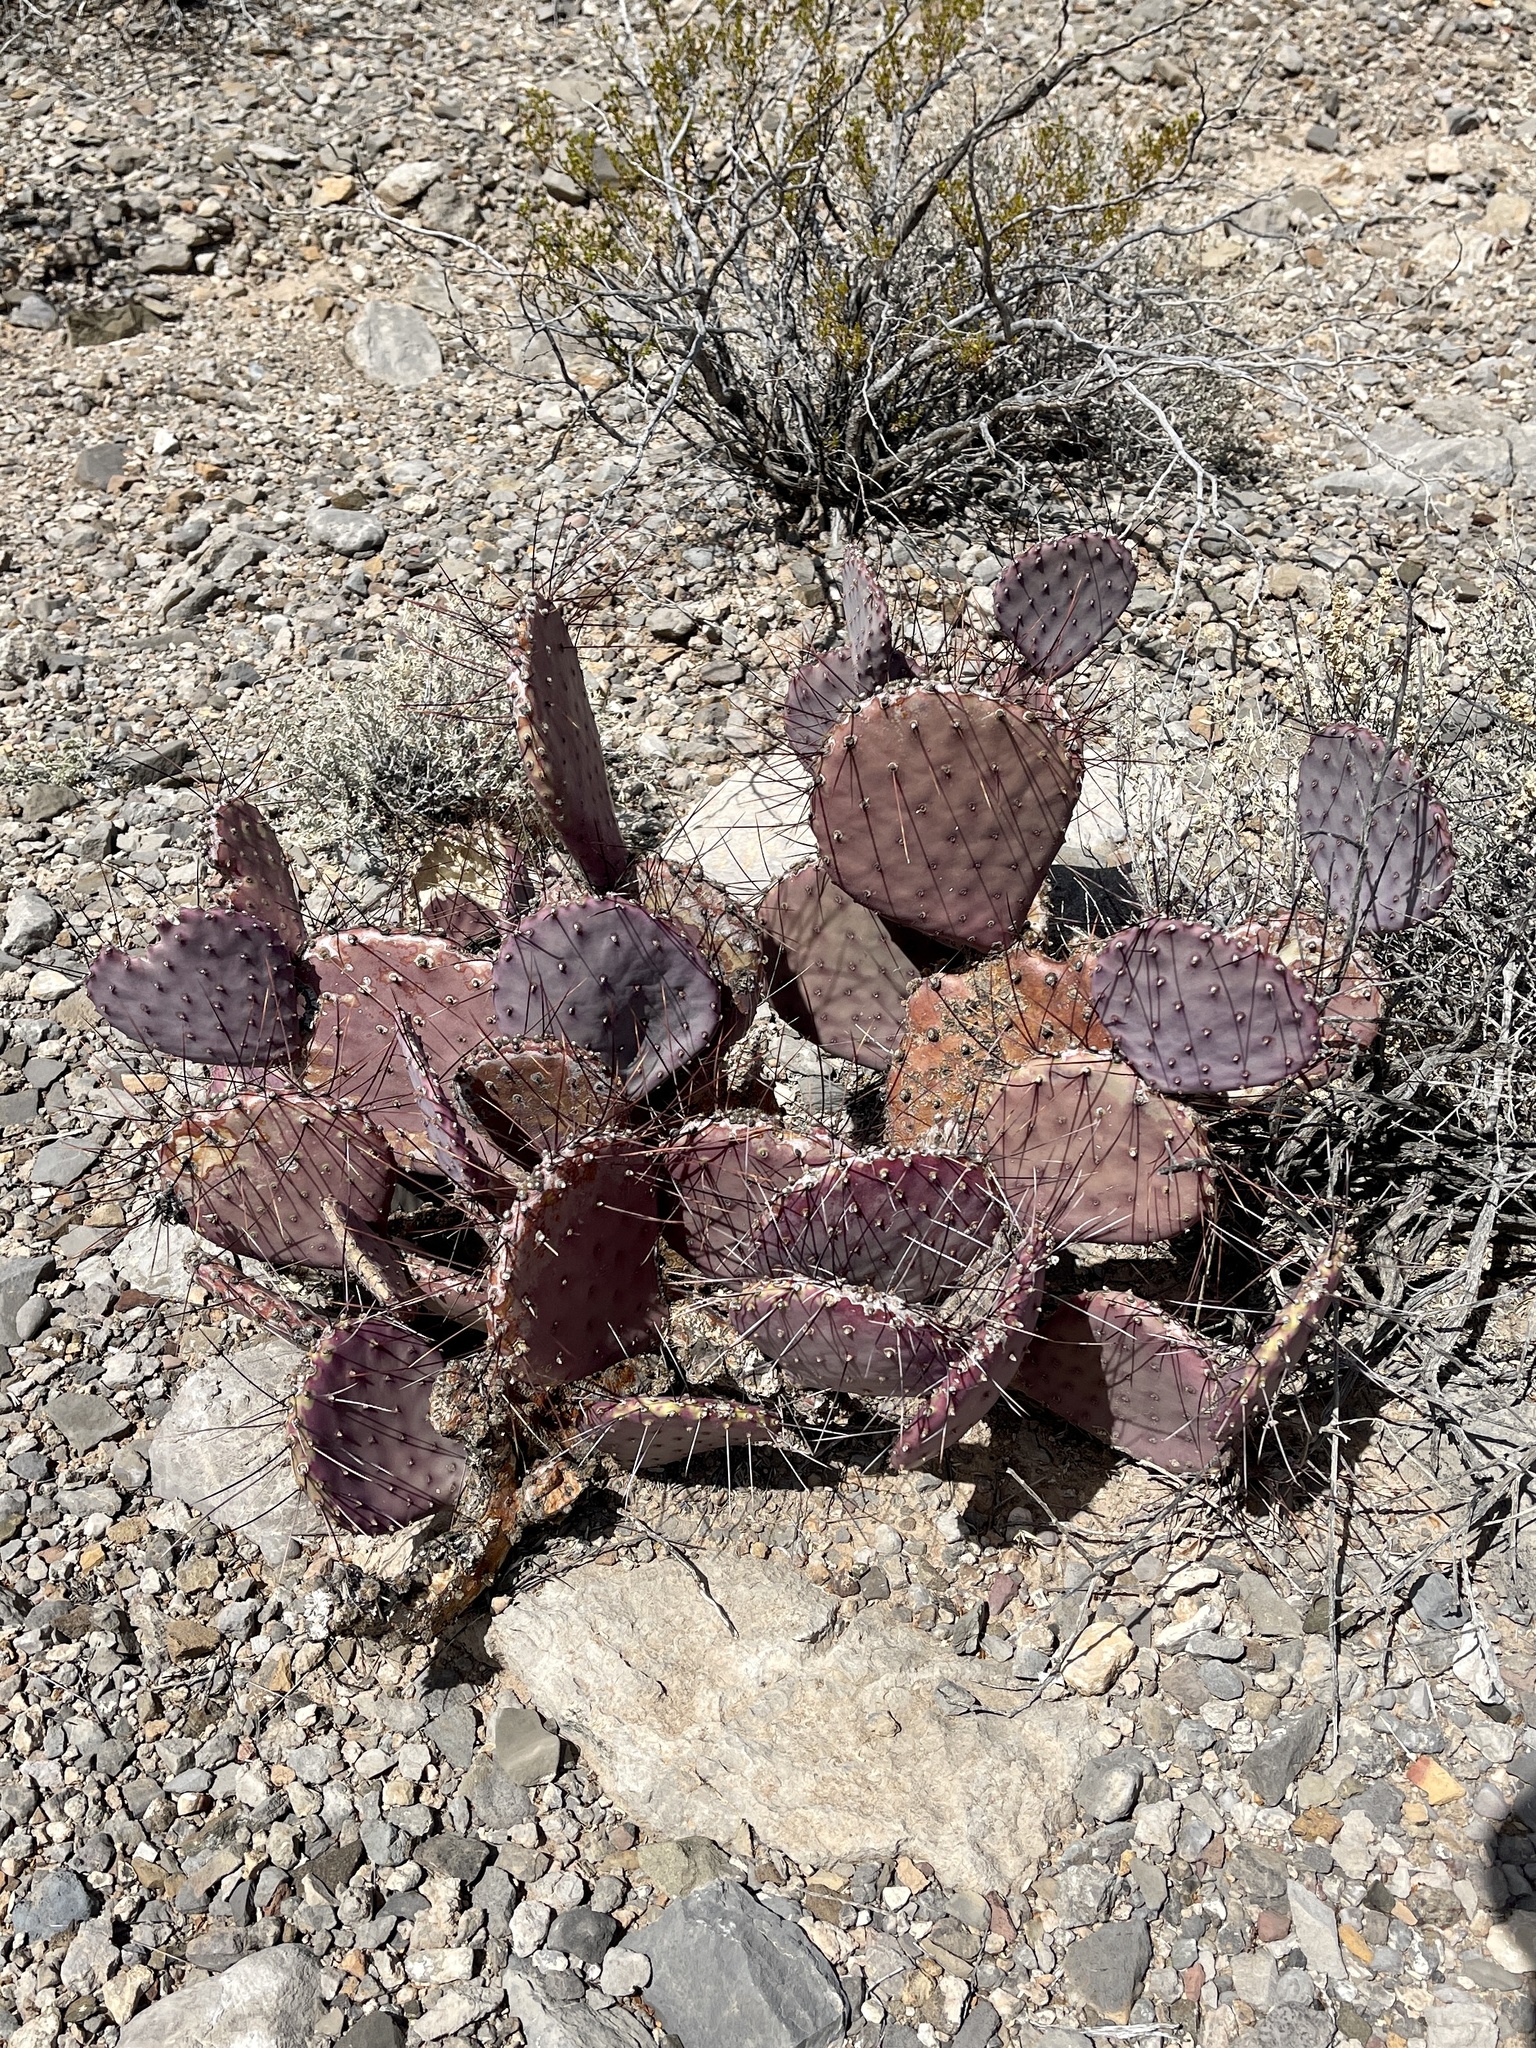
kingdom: Plantae
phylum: Tracheophyta
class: Magnoliopsida
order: Caryophyllales
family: Cactaceae
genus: Opuntia
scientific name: Opuntia macrocentra
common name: Purple prickly-pear
